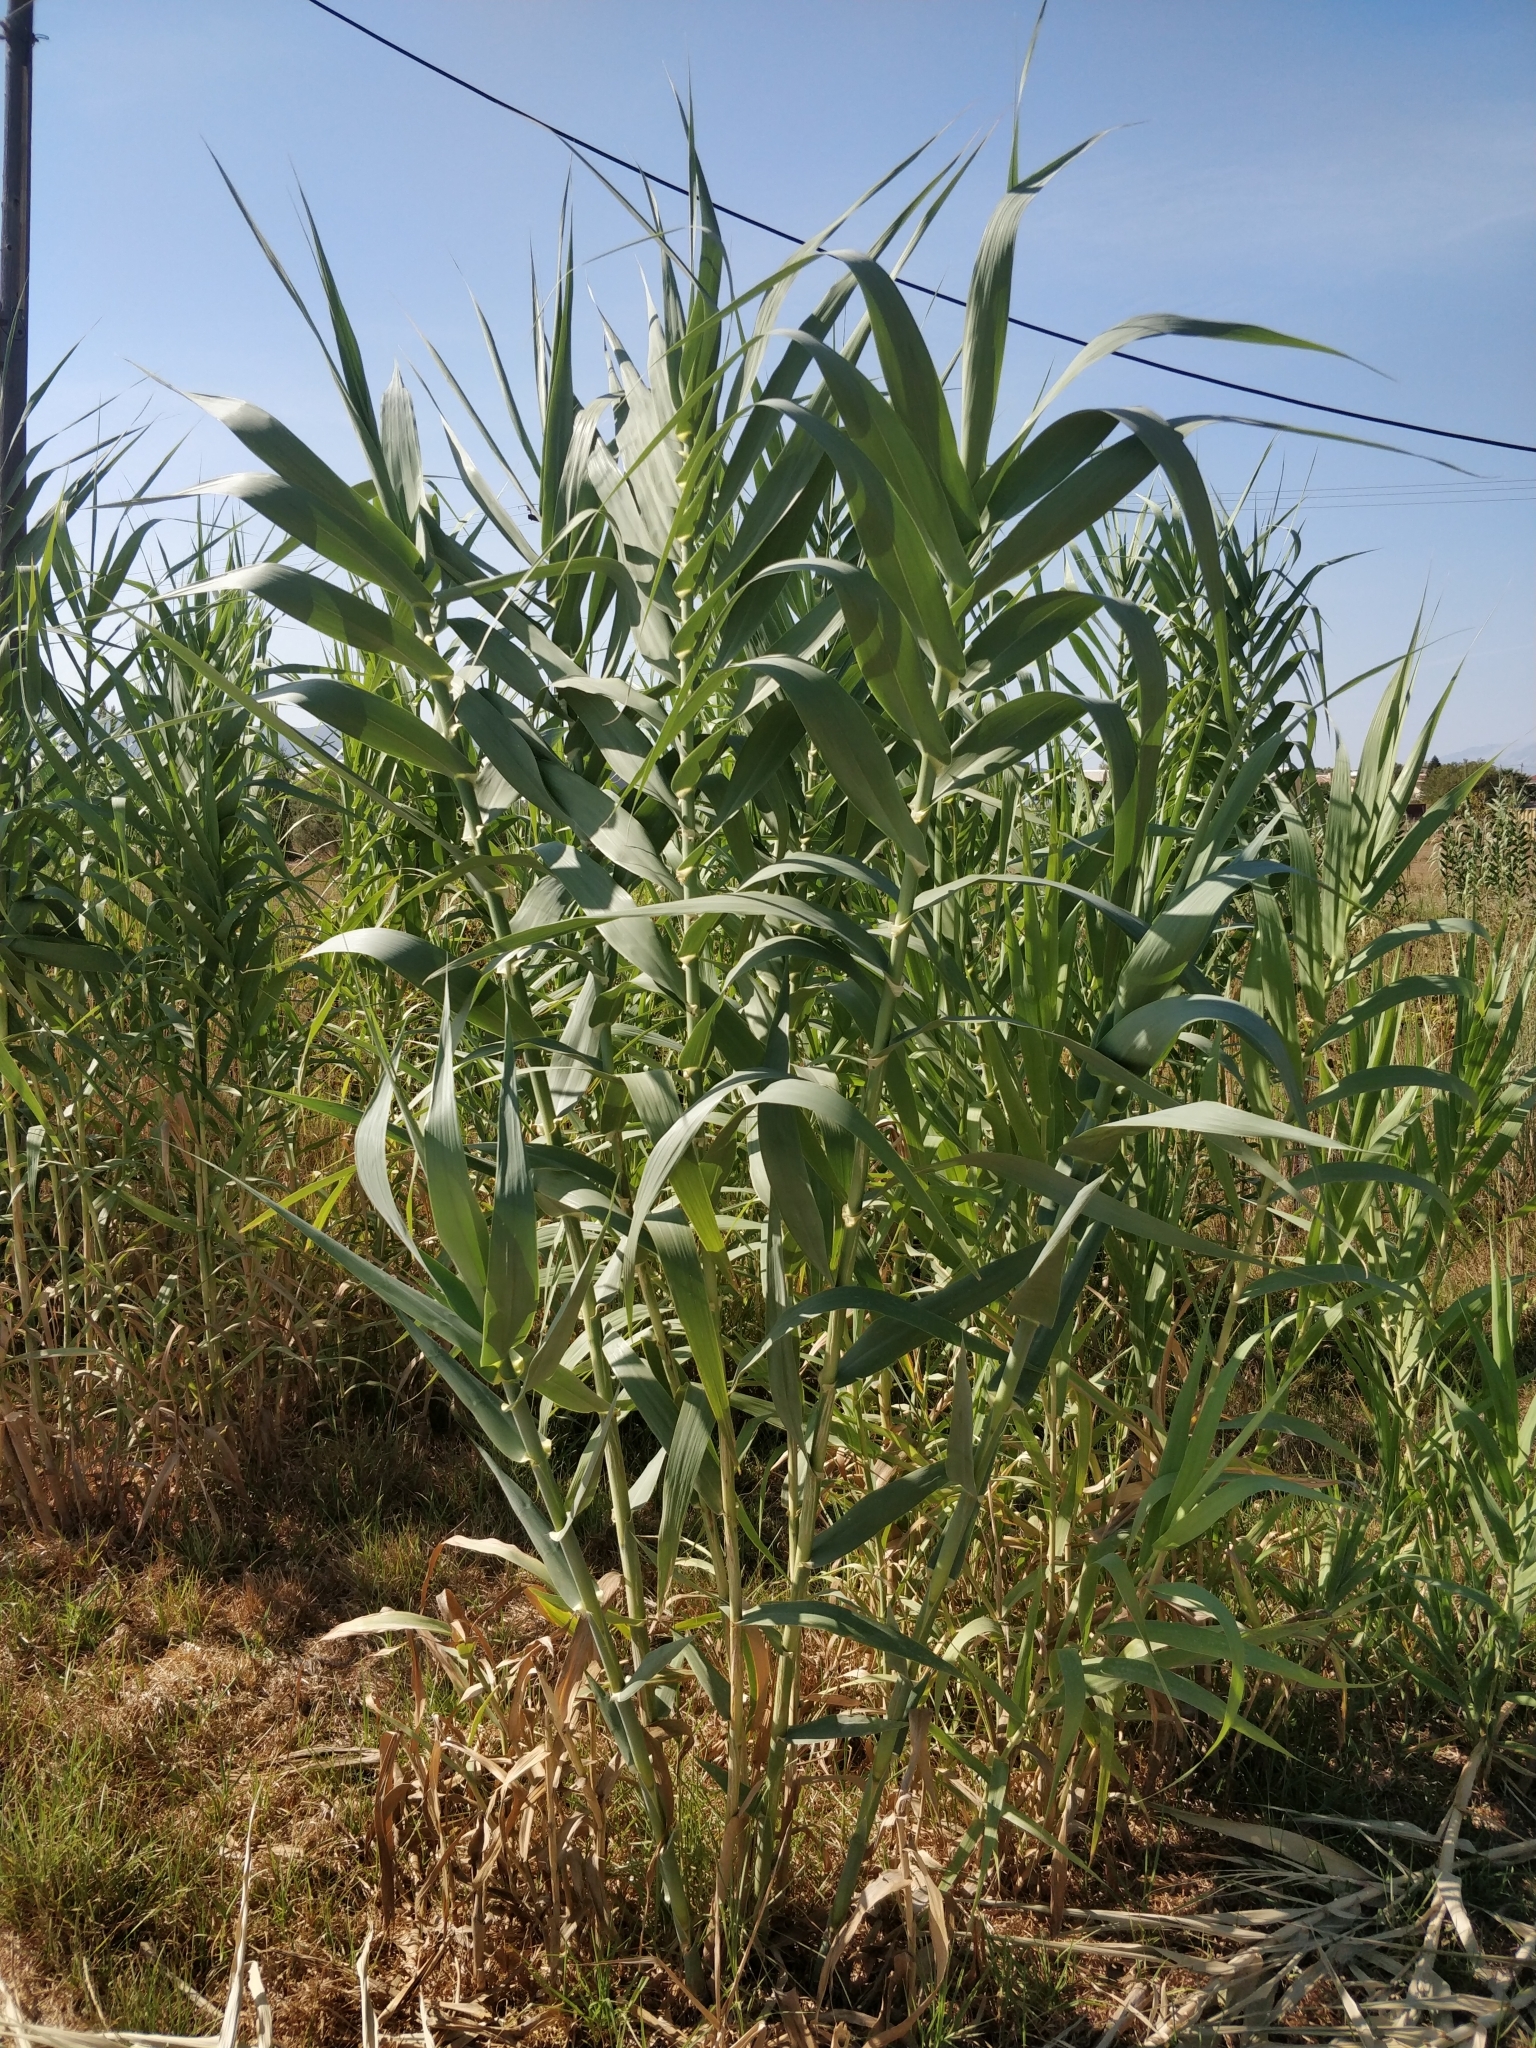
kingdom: Plantae
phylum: Tracheophyta
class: Liliopsida
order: Poales
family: Poaceae
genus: Arundo
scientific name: Arundo donax
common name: Giant reed
